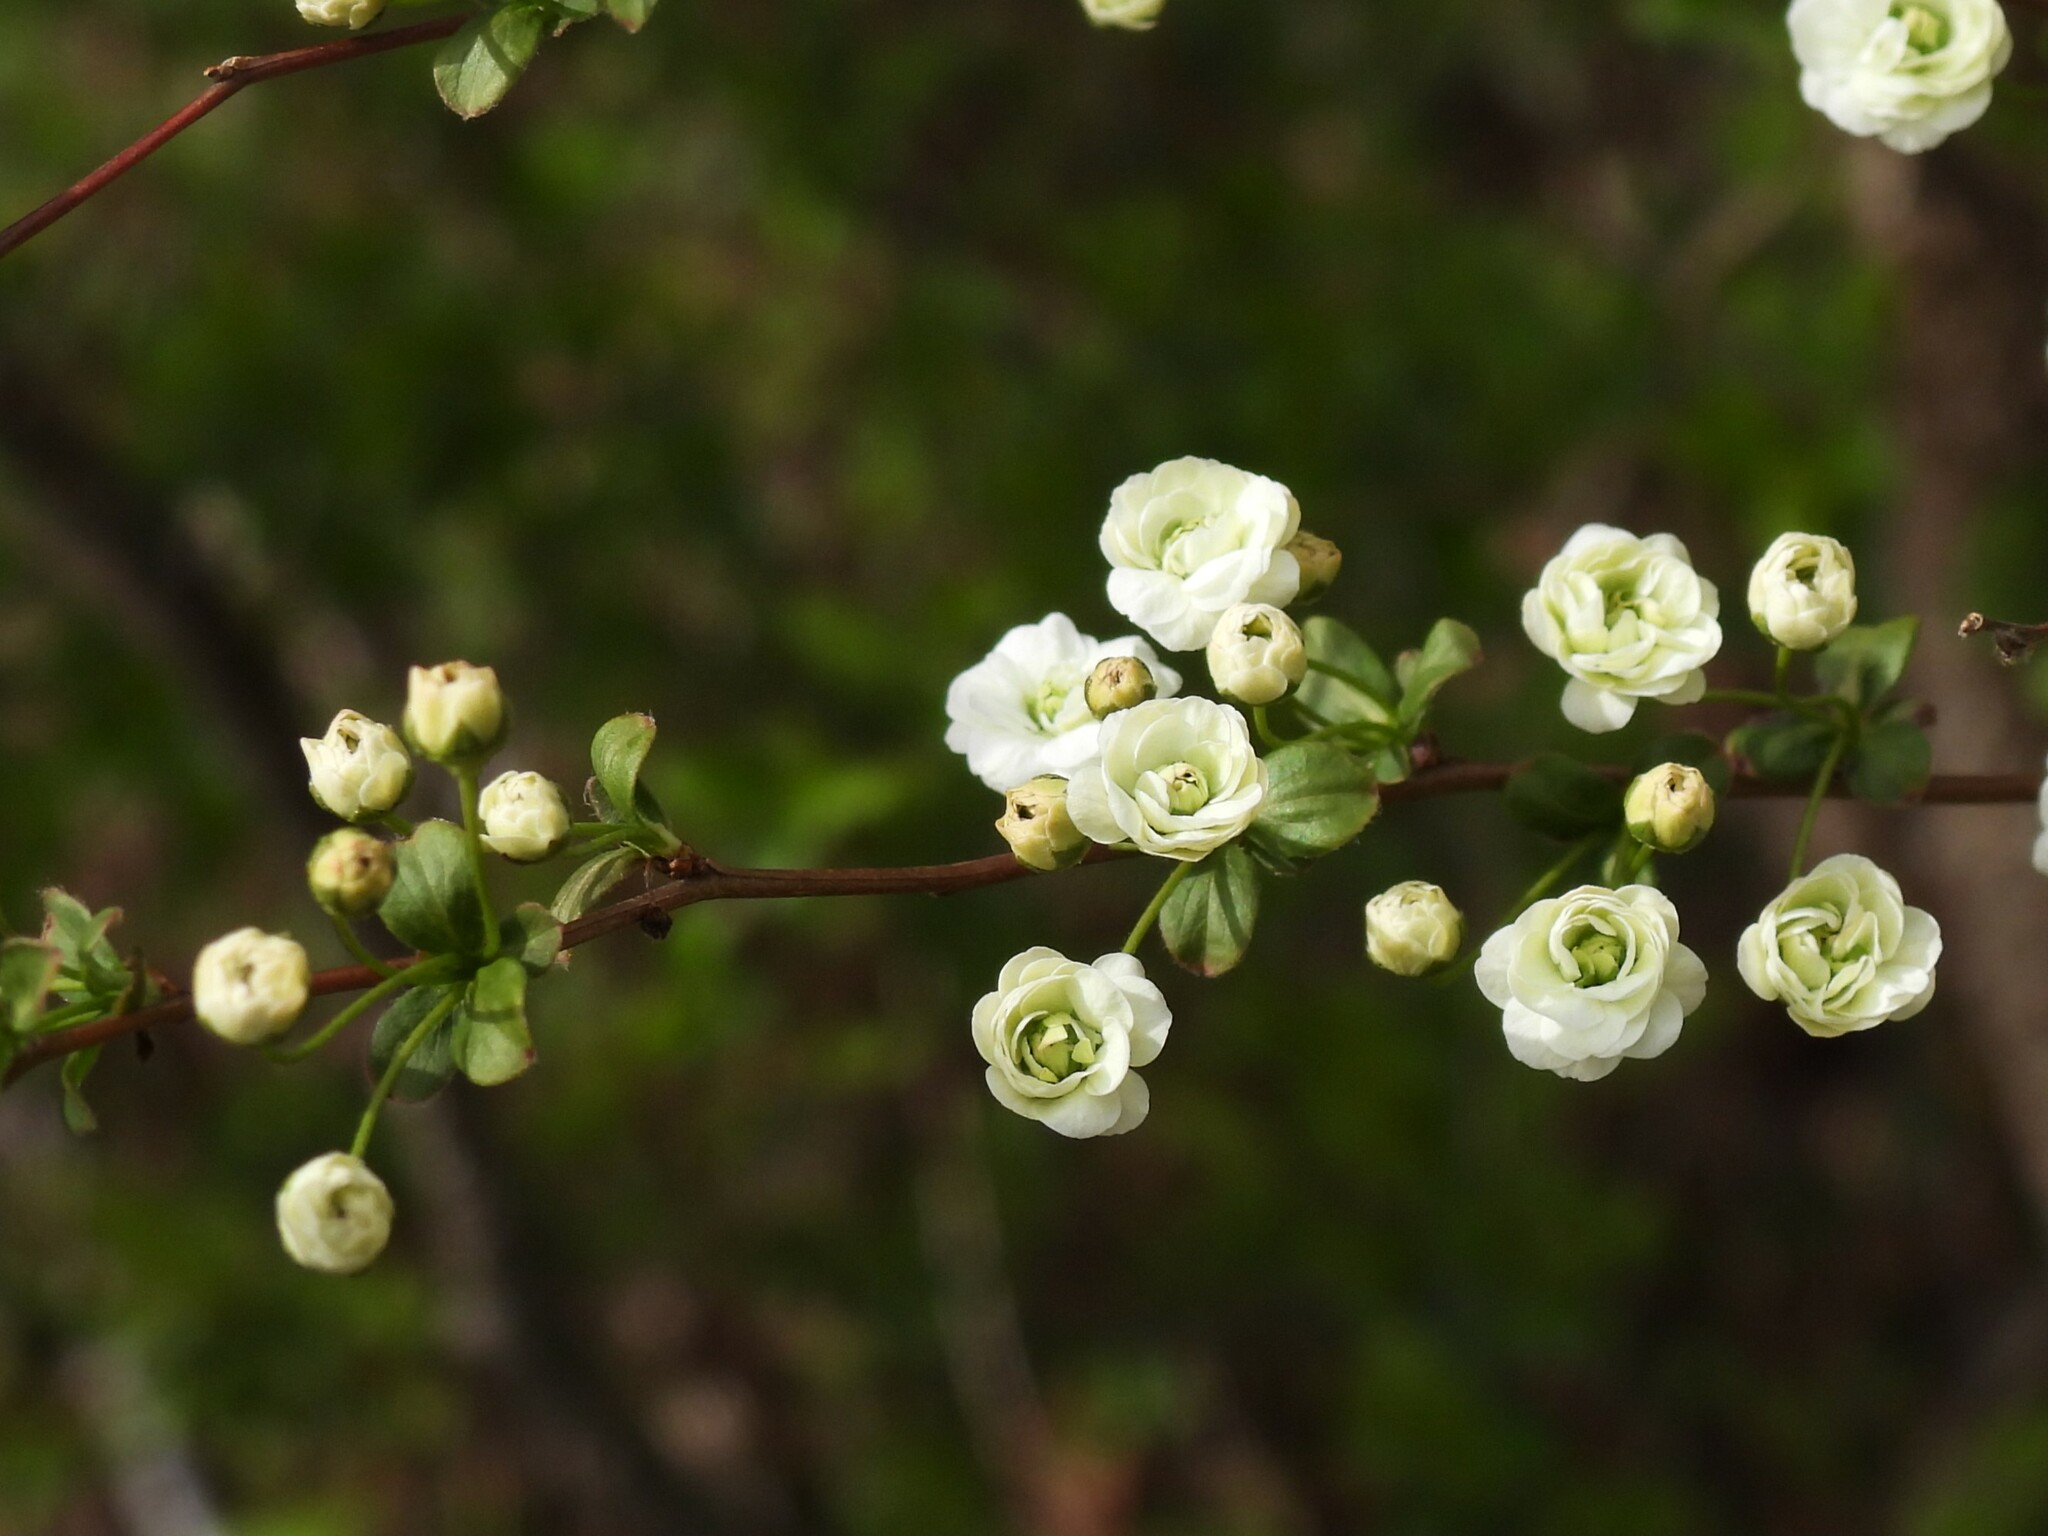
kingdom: Plantae
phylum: Tracheophyta
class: Magnoliopsida
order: Rosales
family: Rosaceae
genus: Spiraea
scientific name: Spiraea prunifolia
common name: Bridal-wreath spiraea
